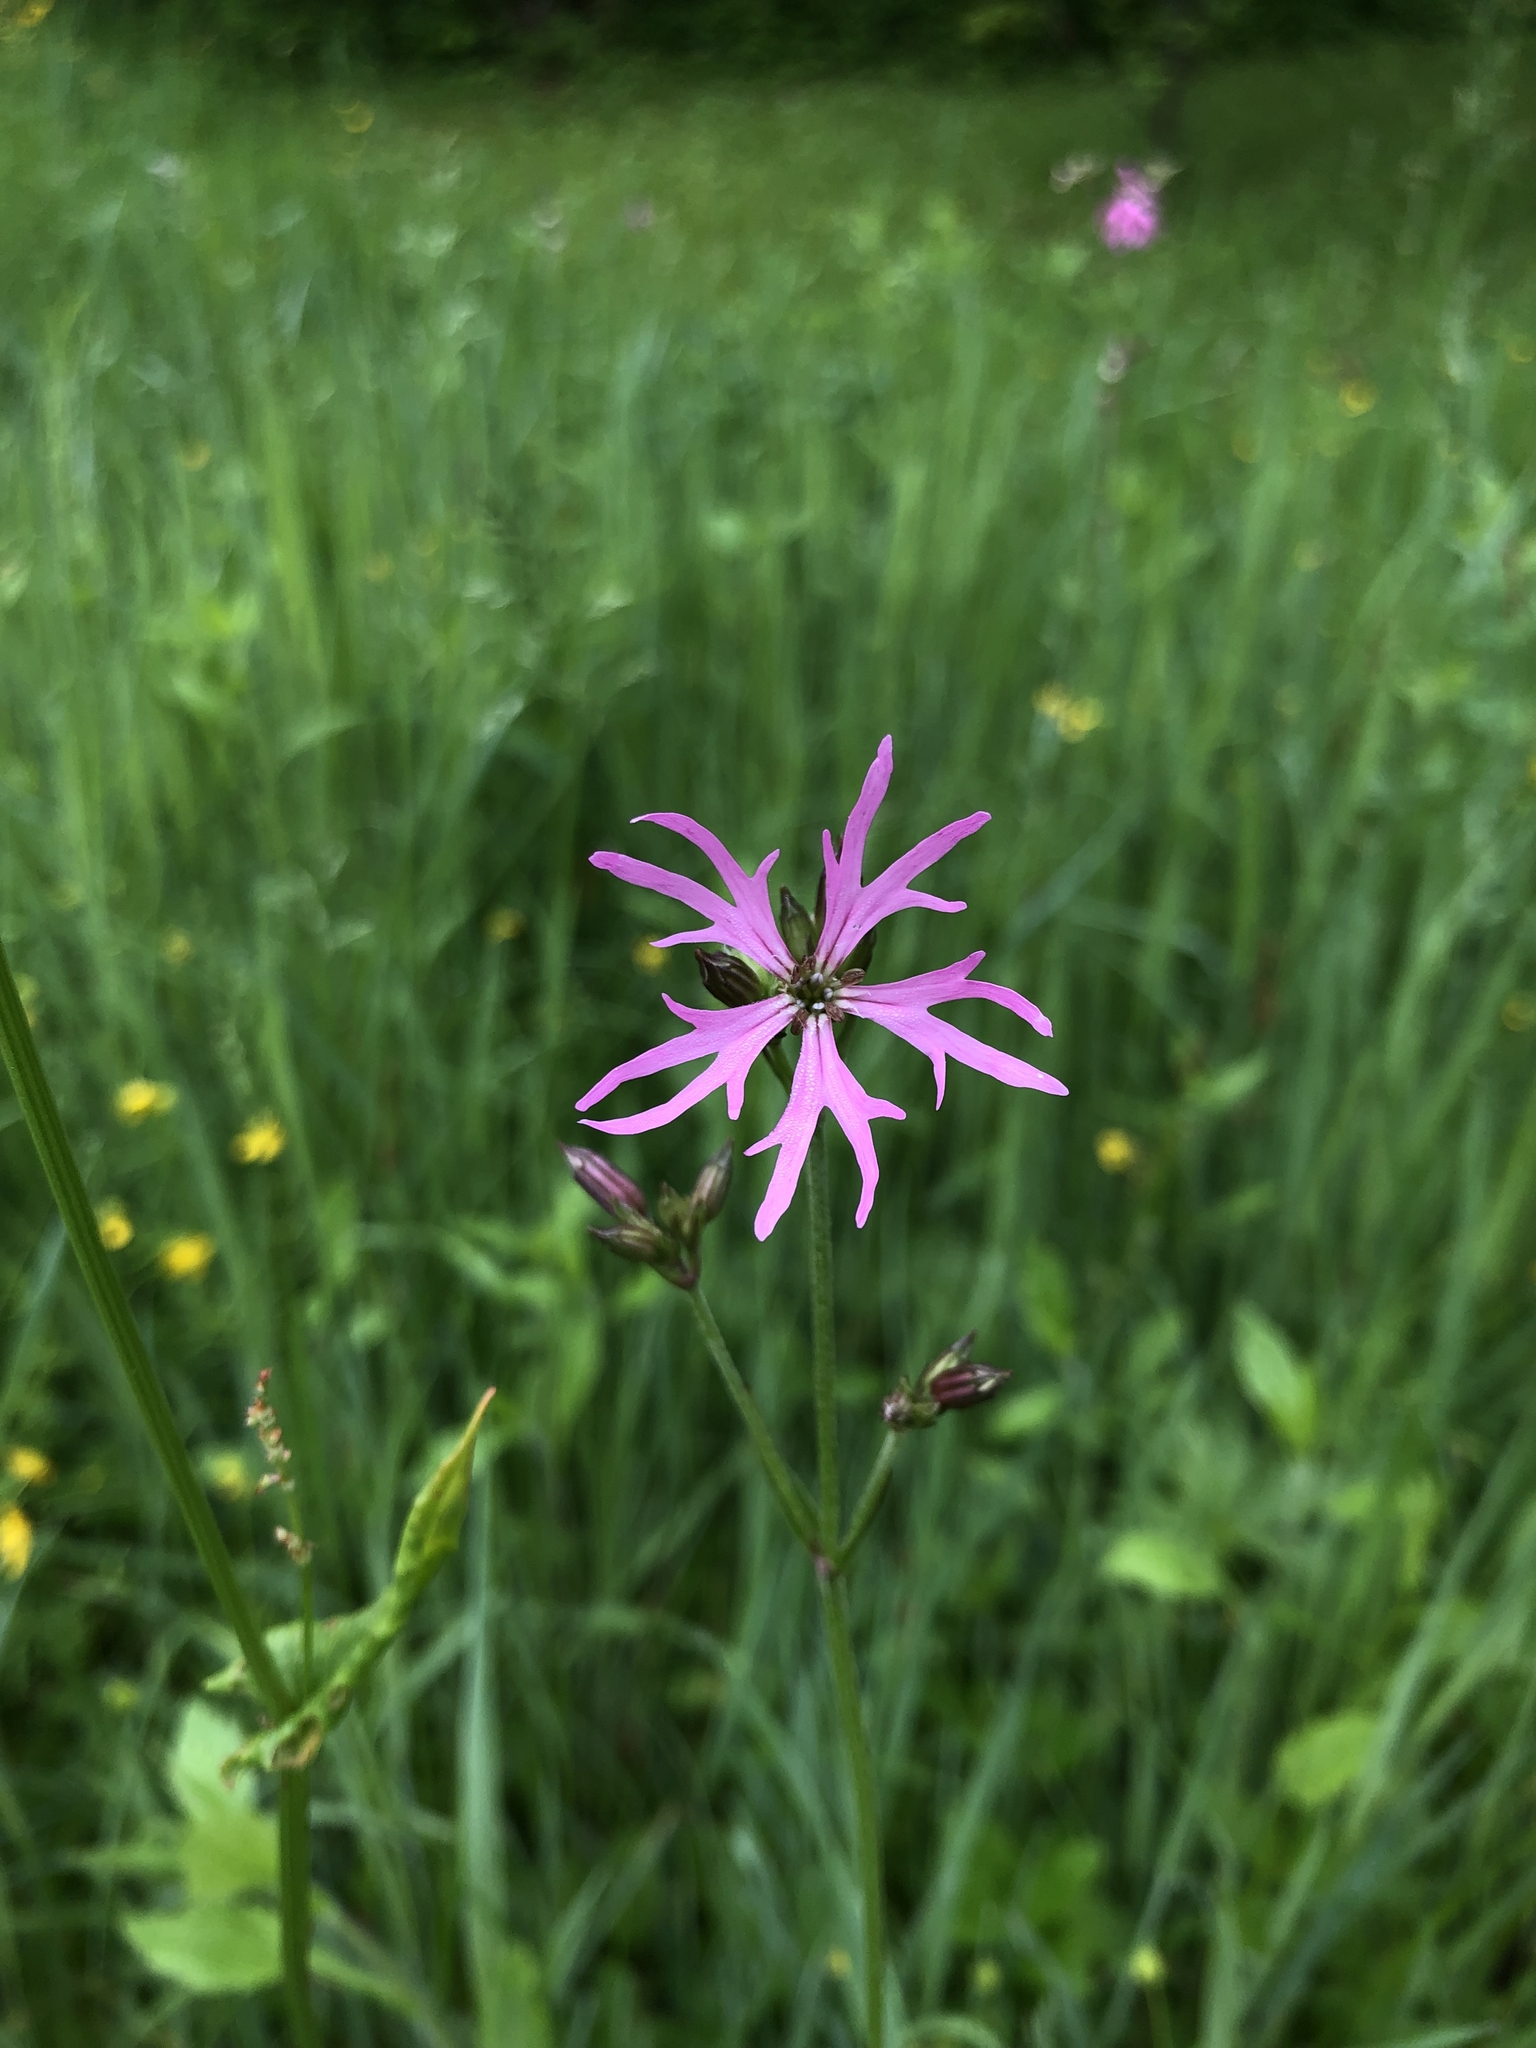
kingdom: Plantae
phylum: Tracheophyta
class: Magnoliopsida
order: Caryophyllales
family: Caryophyllaceae
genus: Silene
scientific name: Silene flos-cuculi
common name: Ragged-robin
